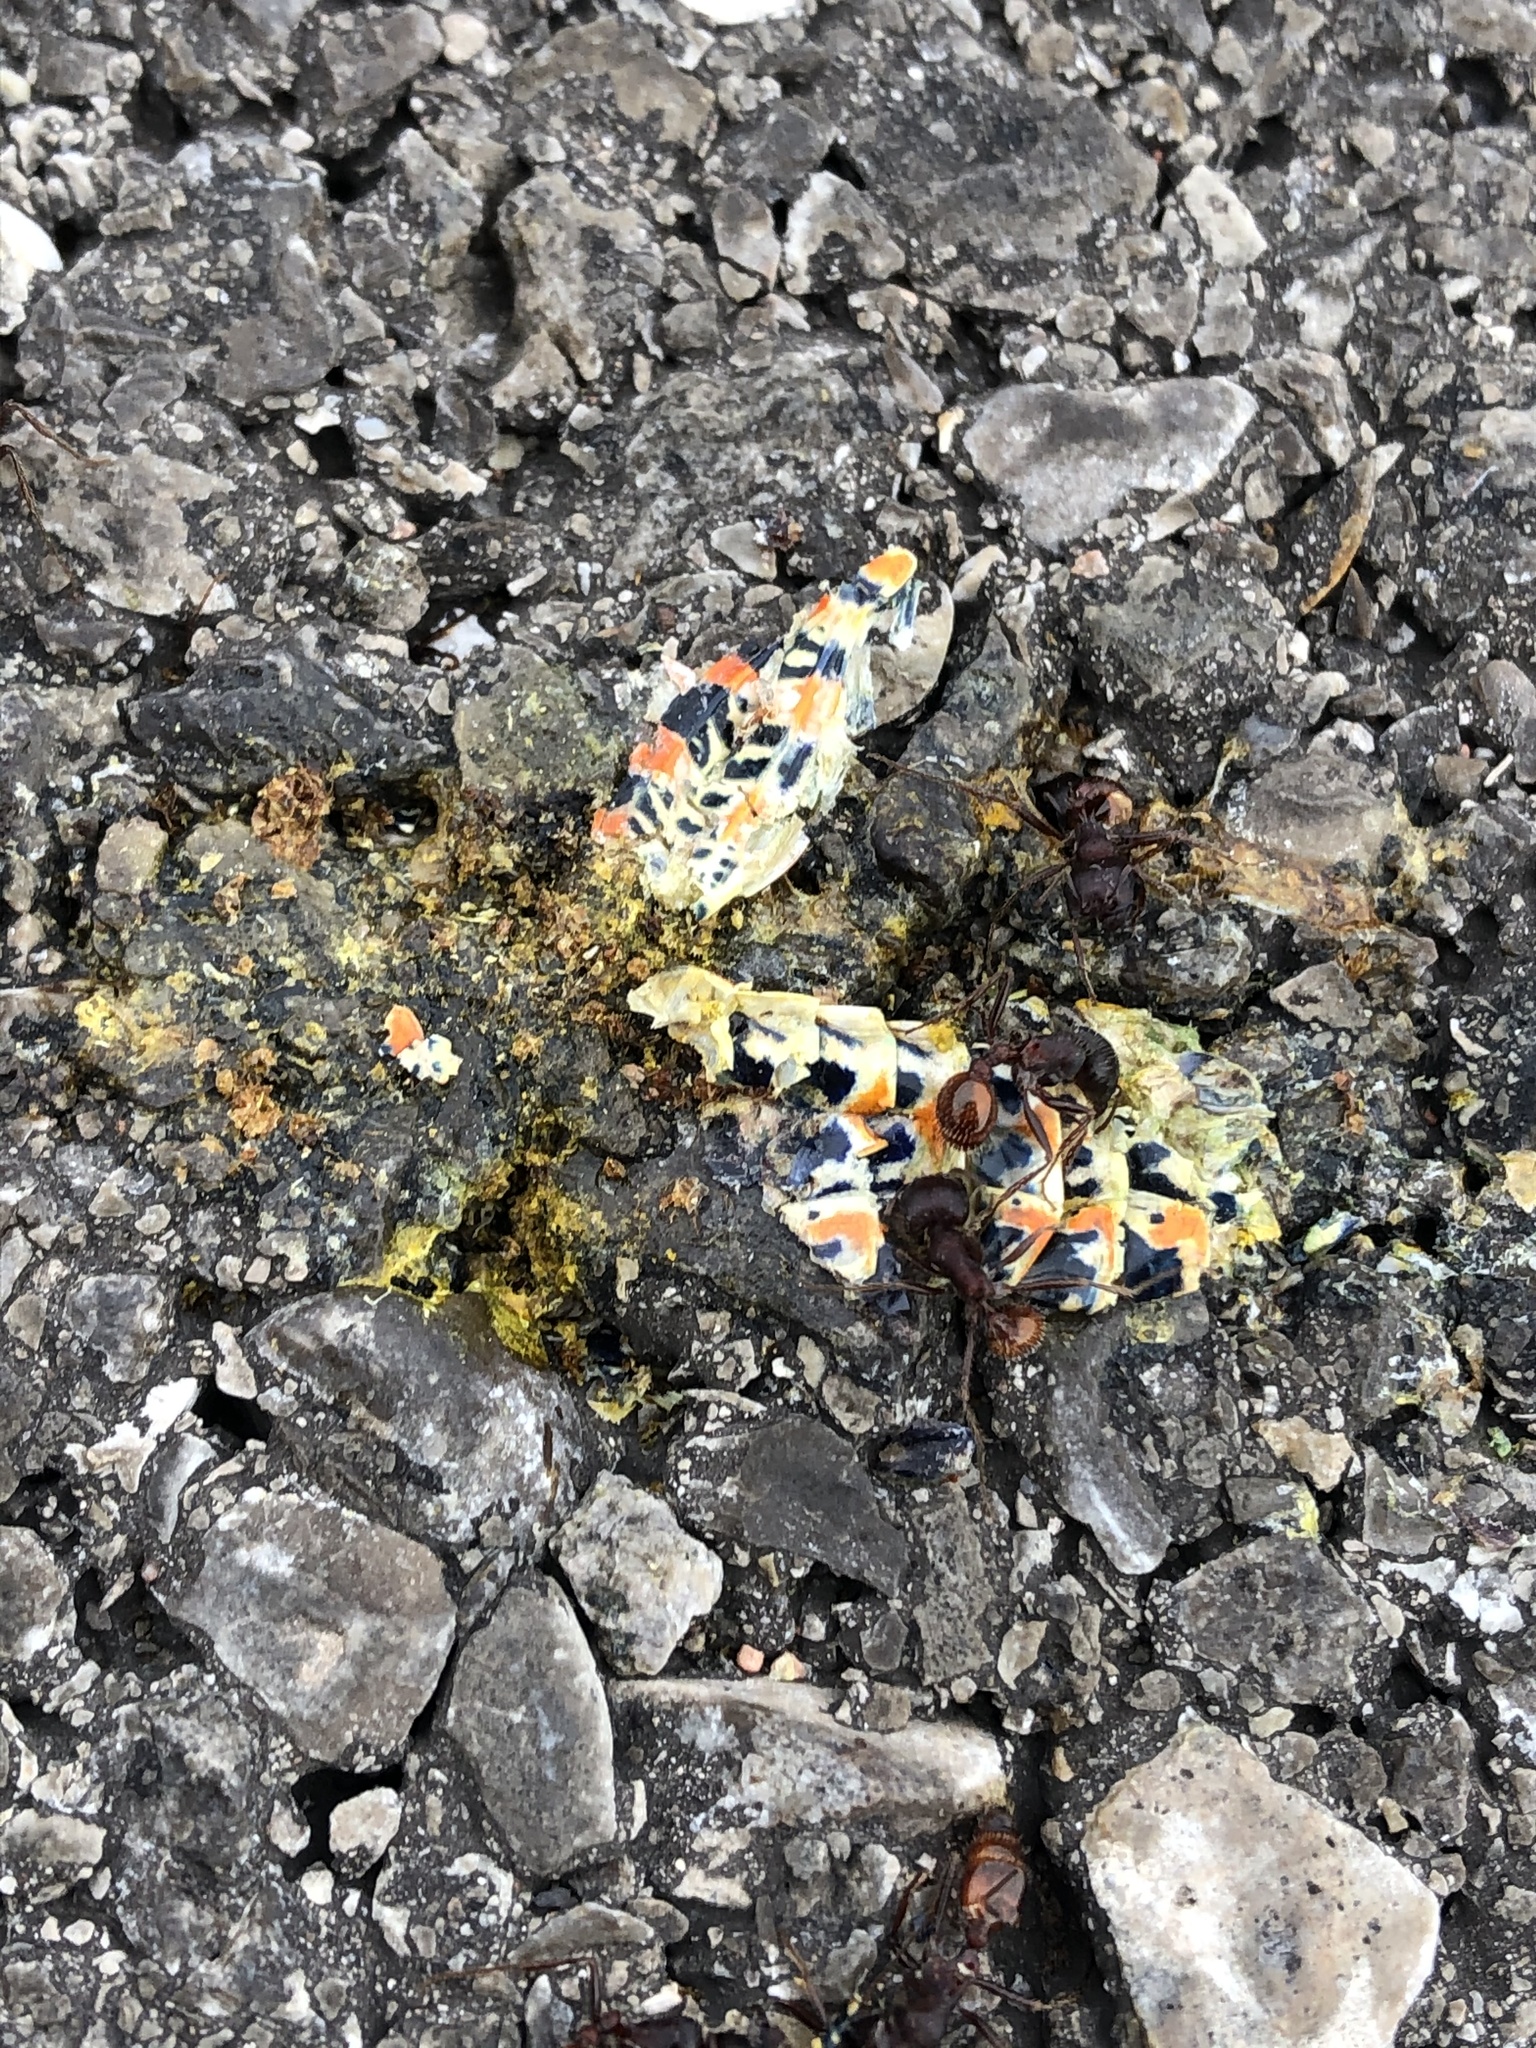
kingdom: Animalia
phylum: Arthropoda
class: Insecta
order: Orthoptera
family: Acrididae
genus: Dactylotum
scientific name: Dactylotum bicolor
